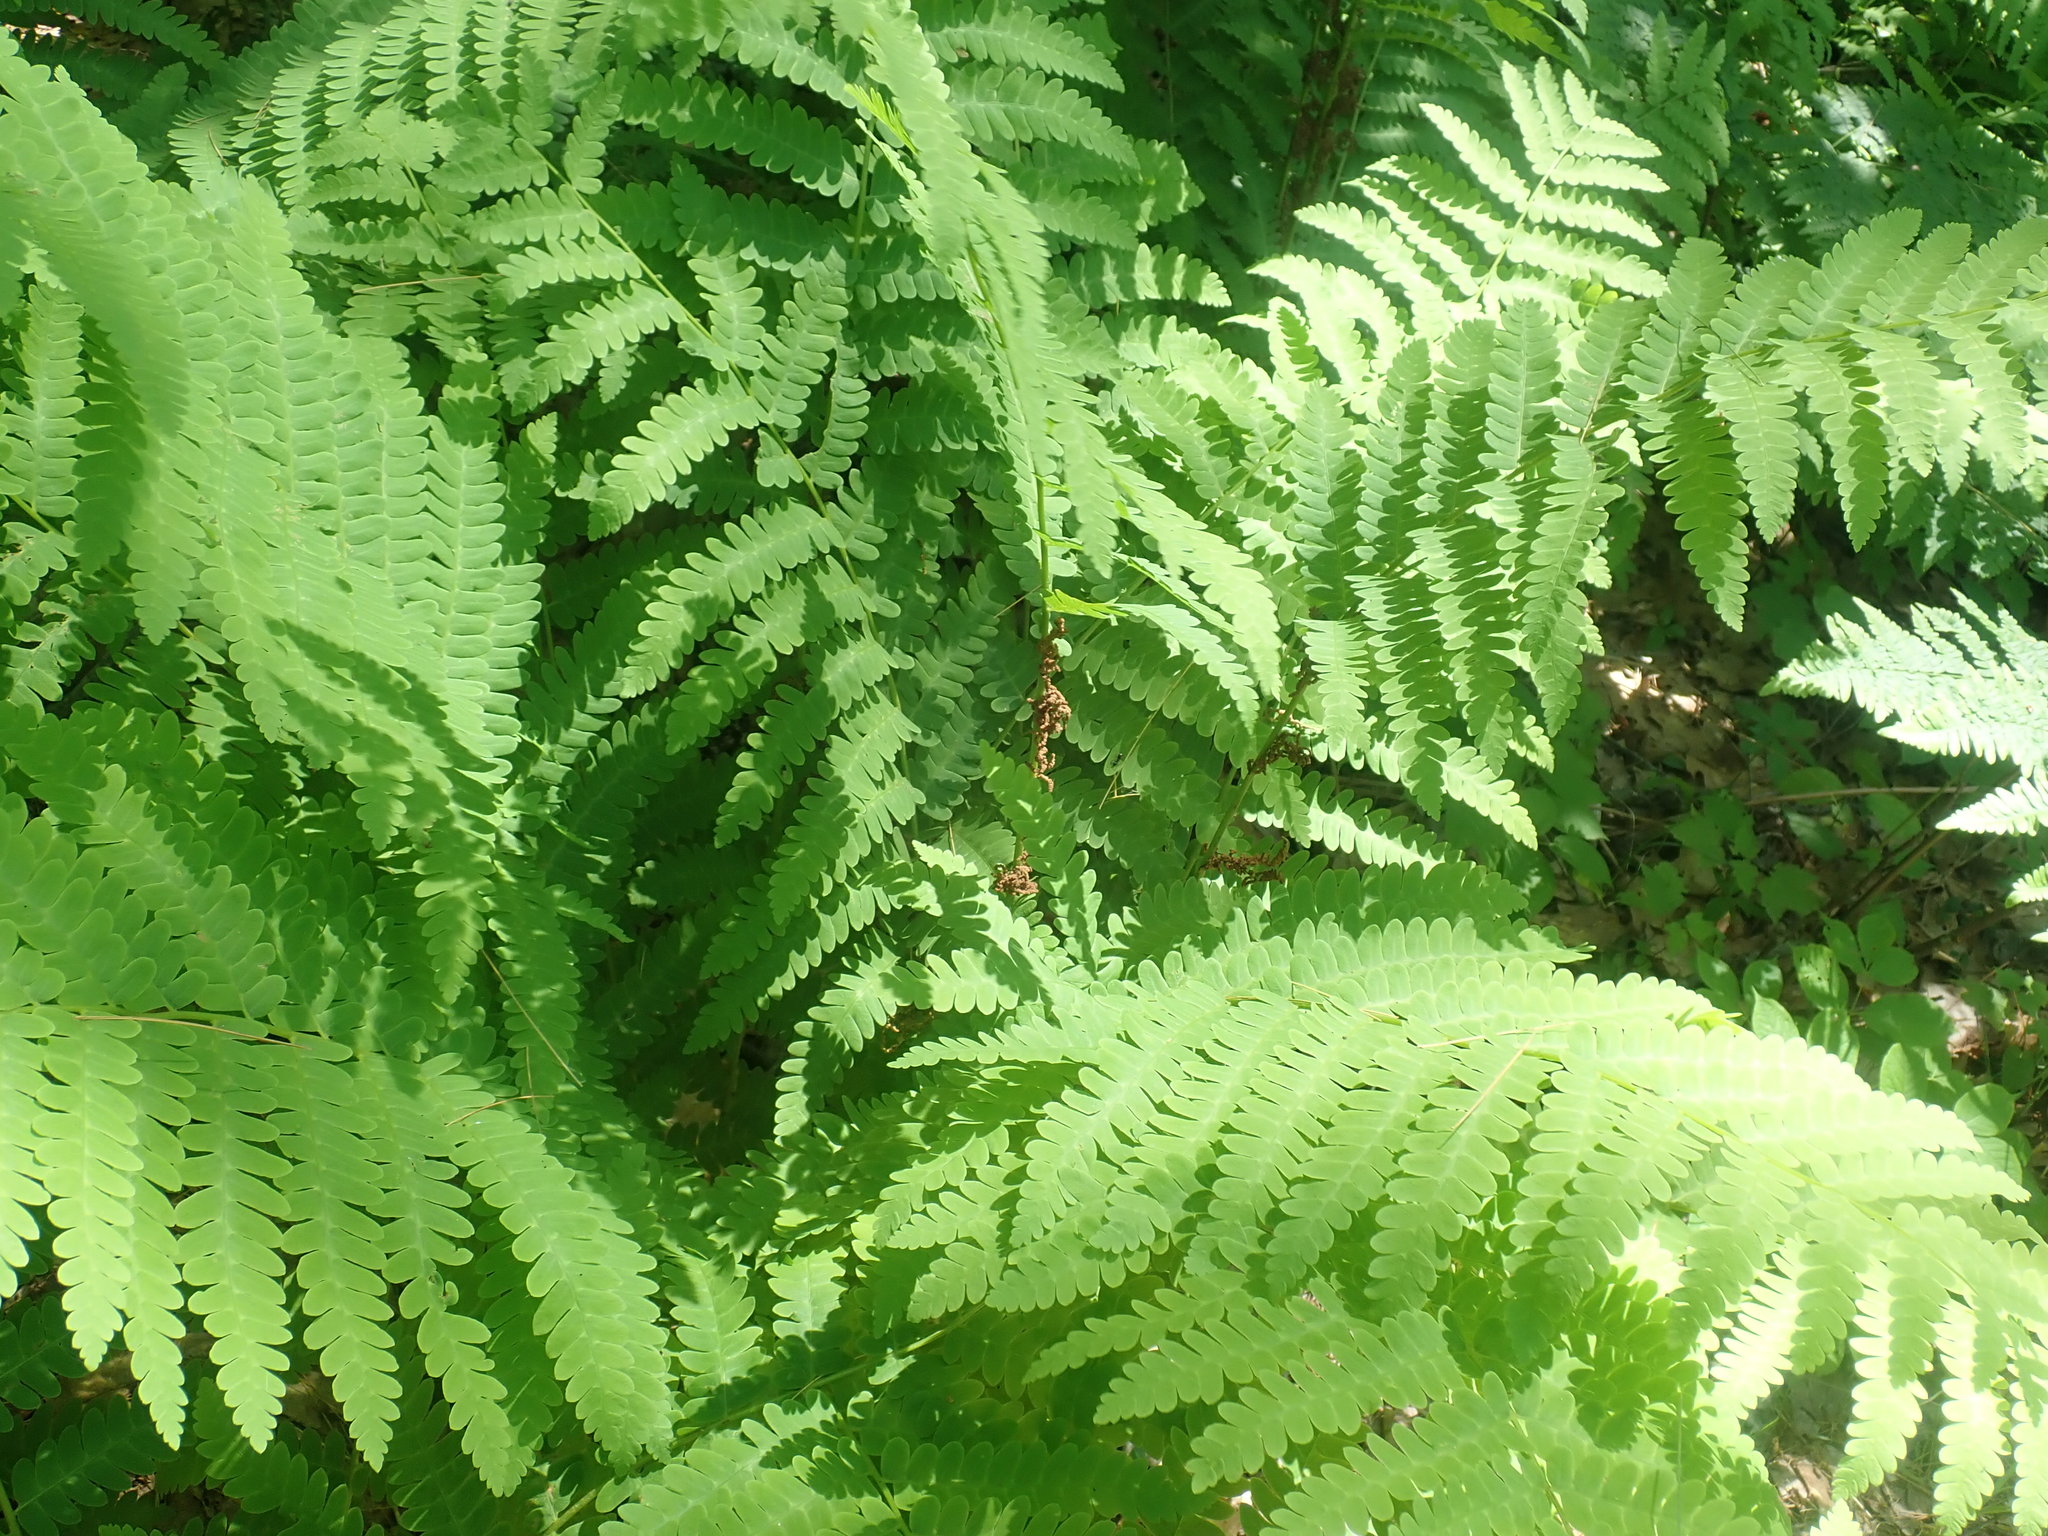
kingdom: Plantae
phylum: Tracheophyta
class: Polypodiopsida
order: Osmundales
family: Osmundaceae
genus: Claytosmunda
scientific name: Claytosmunda claytoniana
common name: Clayton's fern
